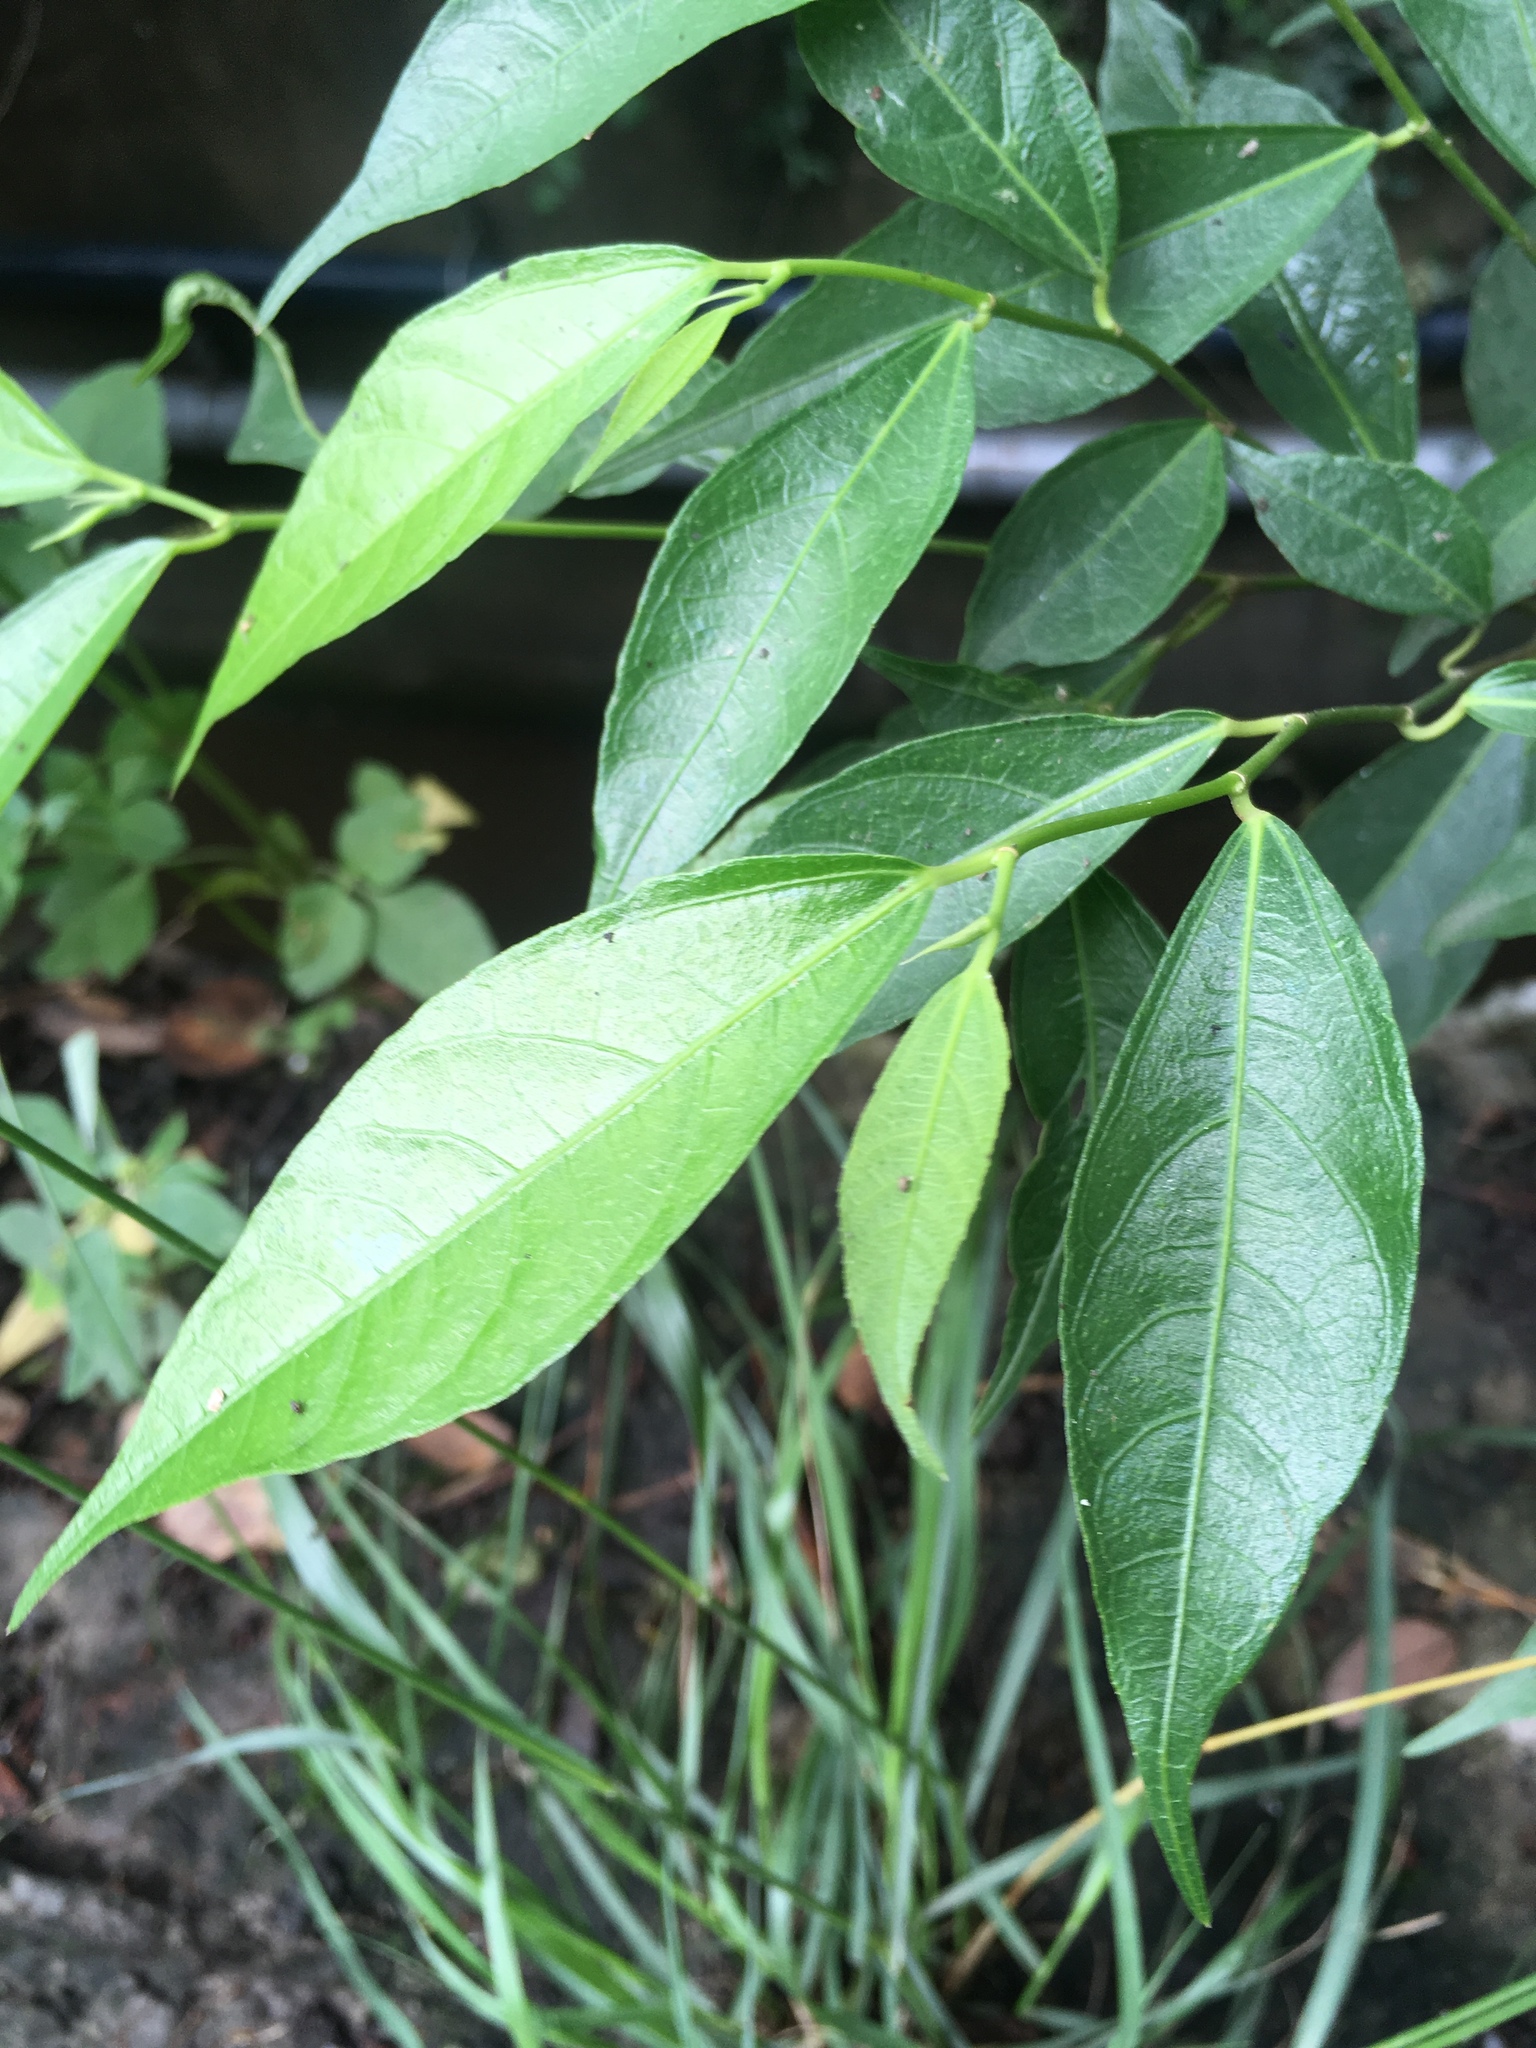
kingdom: Plantae
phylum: Tracheophyta
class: Magnoliopsida
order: Rosales
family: Moraceae
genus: Ficus
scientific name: Ficus ampelos
